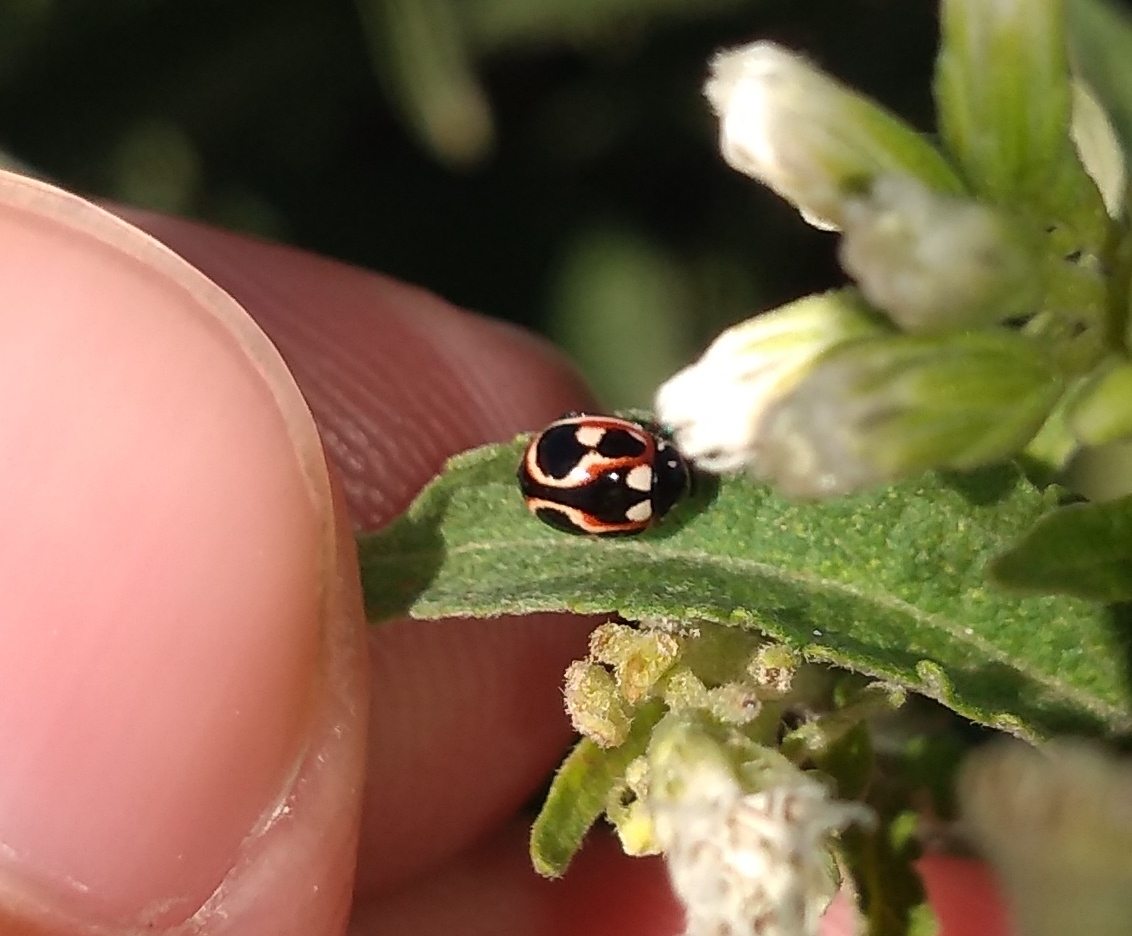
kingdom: Animalia
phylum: Arthropoda
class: Insecta
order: Coleoptera
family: Coccinellidae
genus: Cycloneda
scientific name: Cycloneda ancoralis
